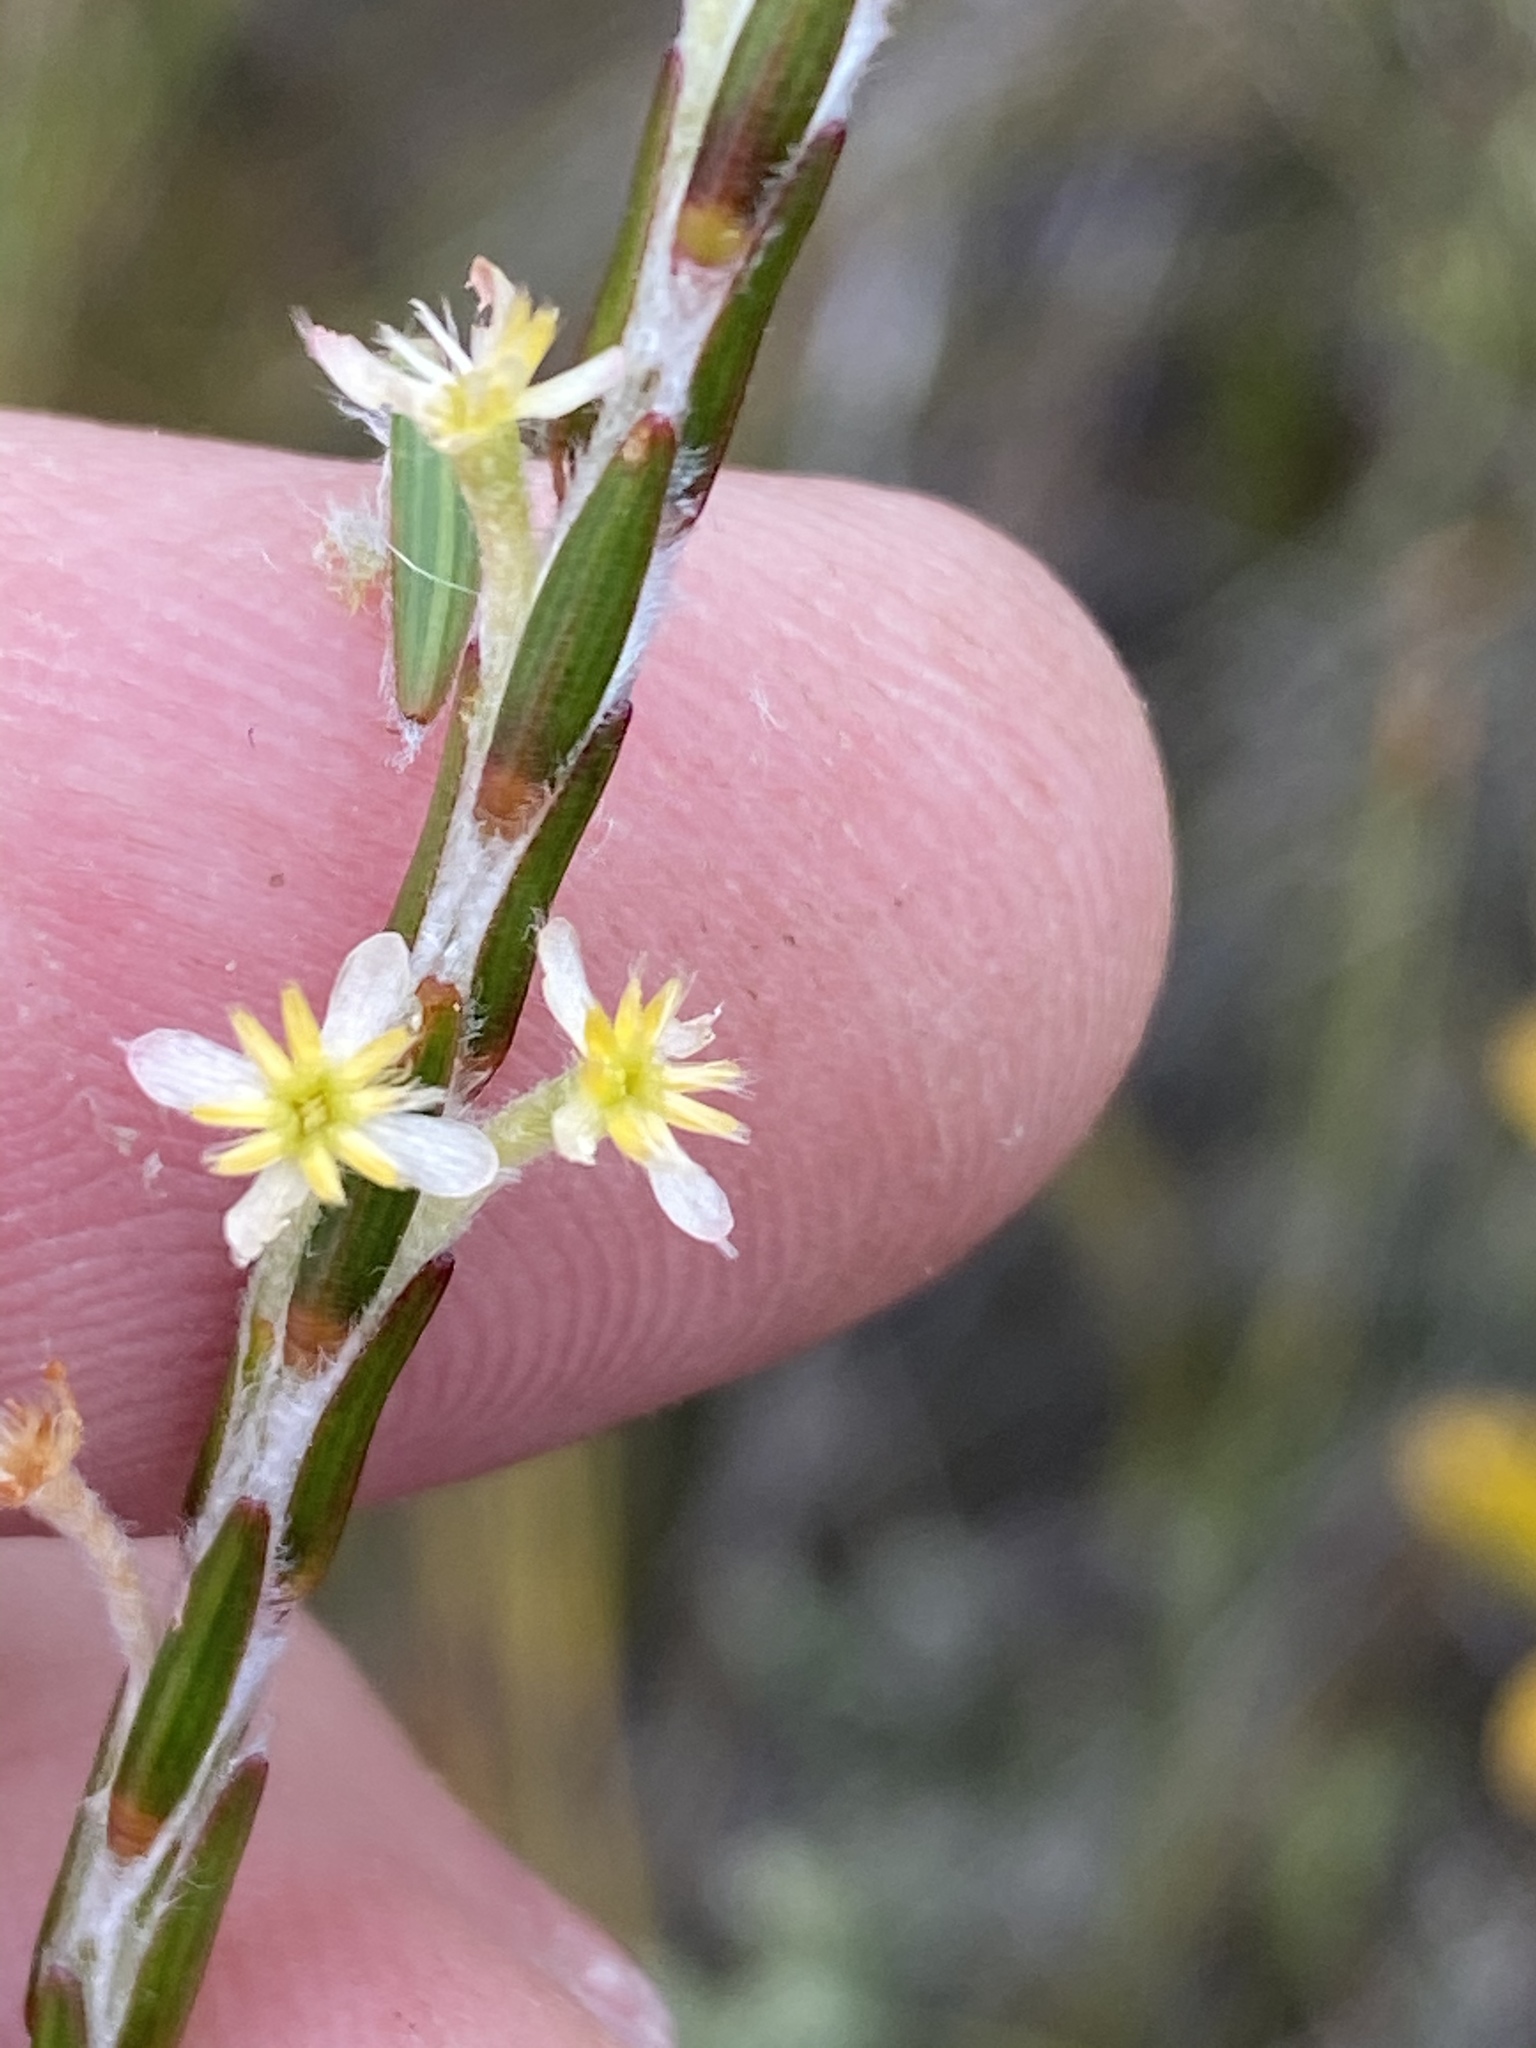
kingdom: Plantae
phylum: Tracheophyta
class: Magnoliopsida
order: Malvales
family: Thymelaeaceae
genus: Struthiola
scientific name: Struthiola ciliata
